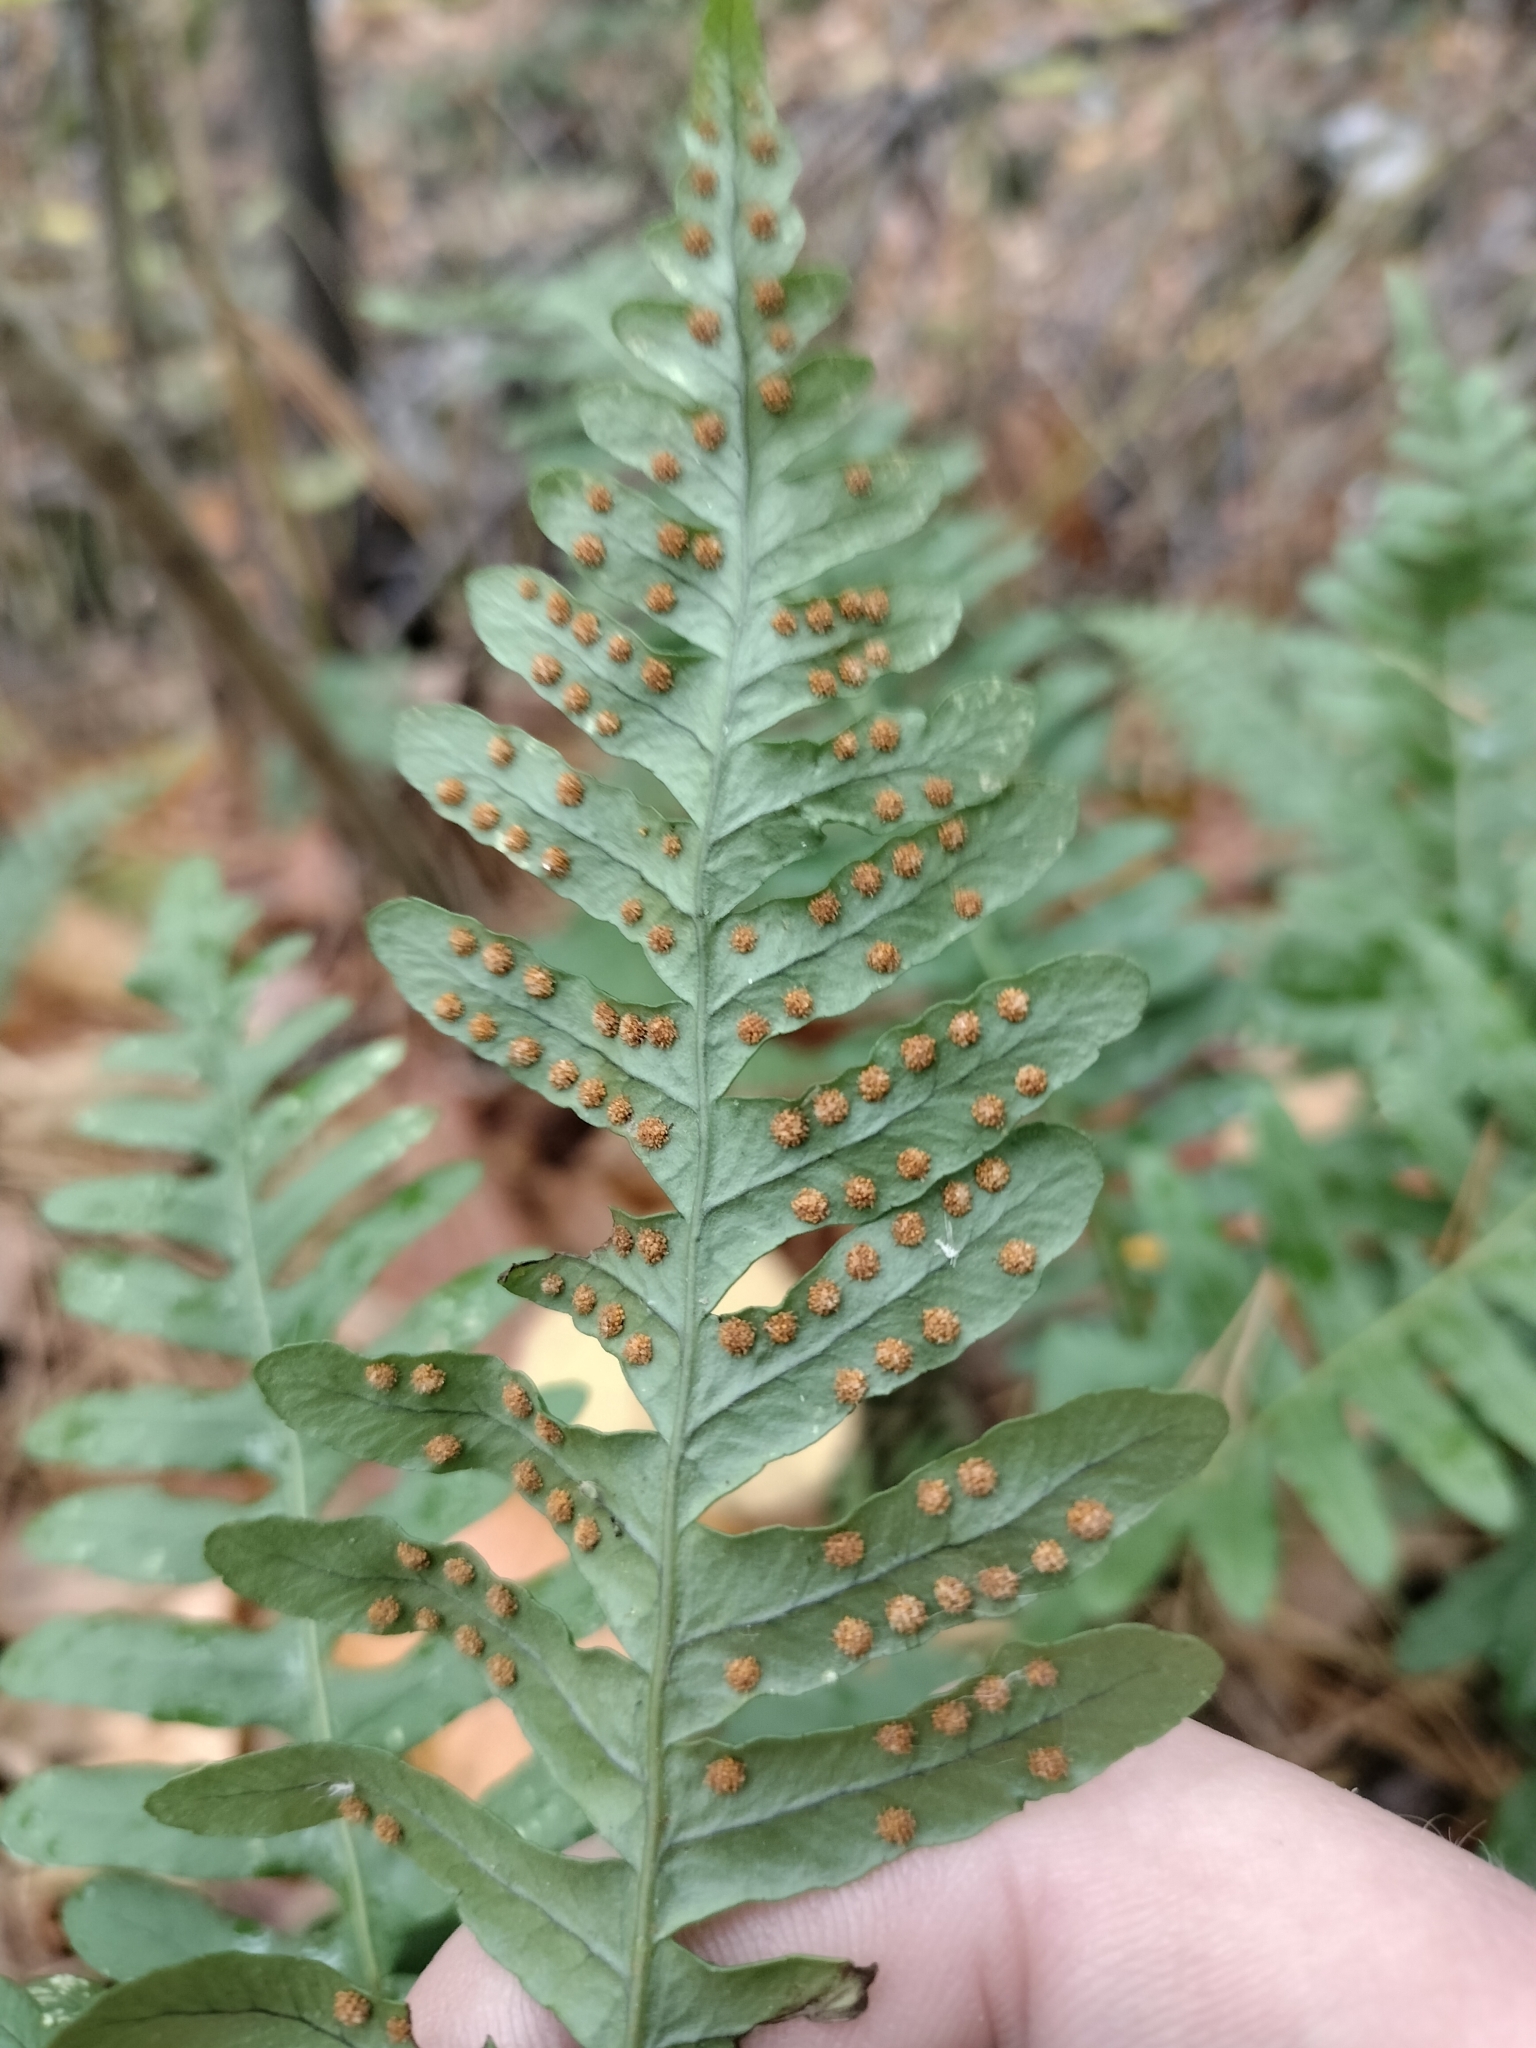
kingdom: Plantae
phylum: Tracheophyta
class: Polypodiopsida
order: Polypodiales
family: Polypodiaceae
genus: Polypodium
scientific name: Polypodium virginianum
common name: American wall fern
